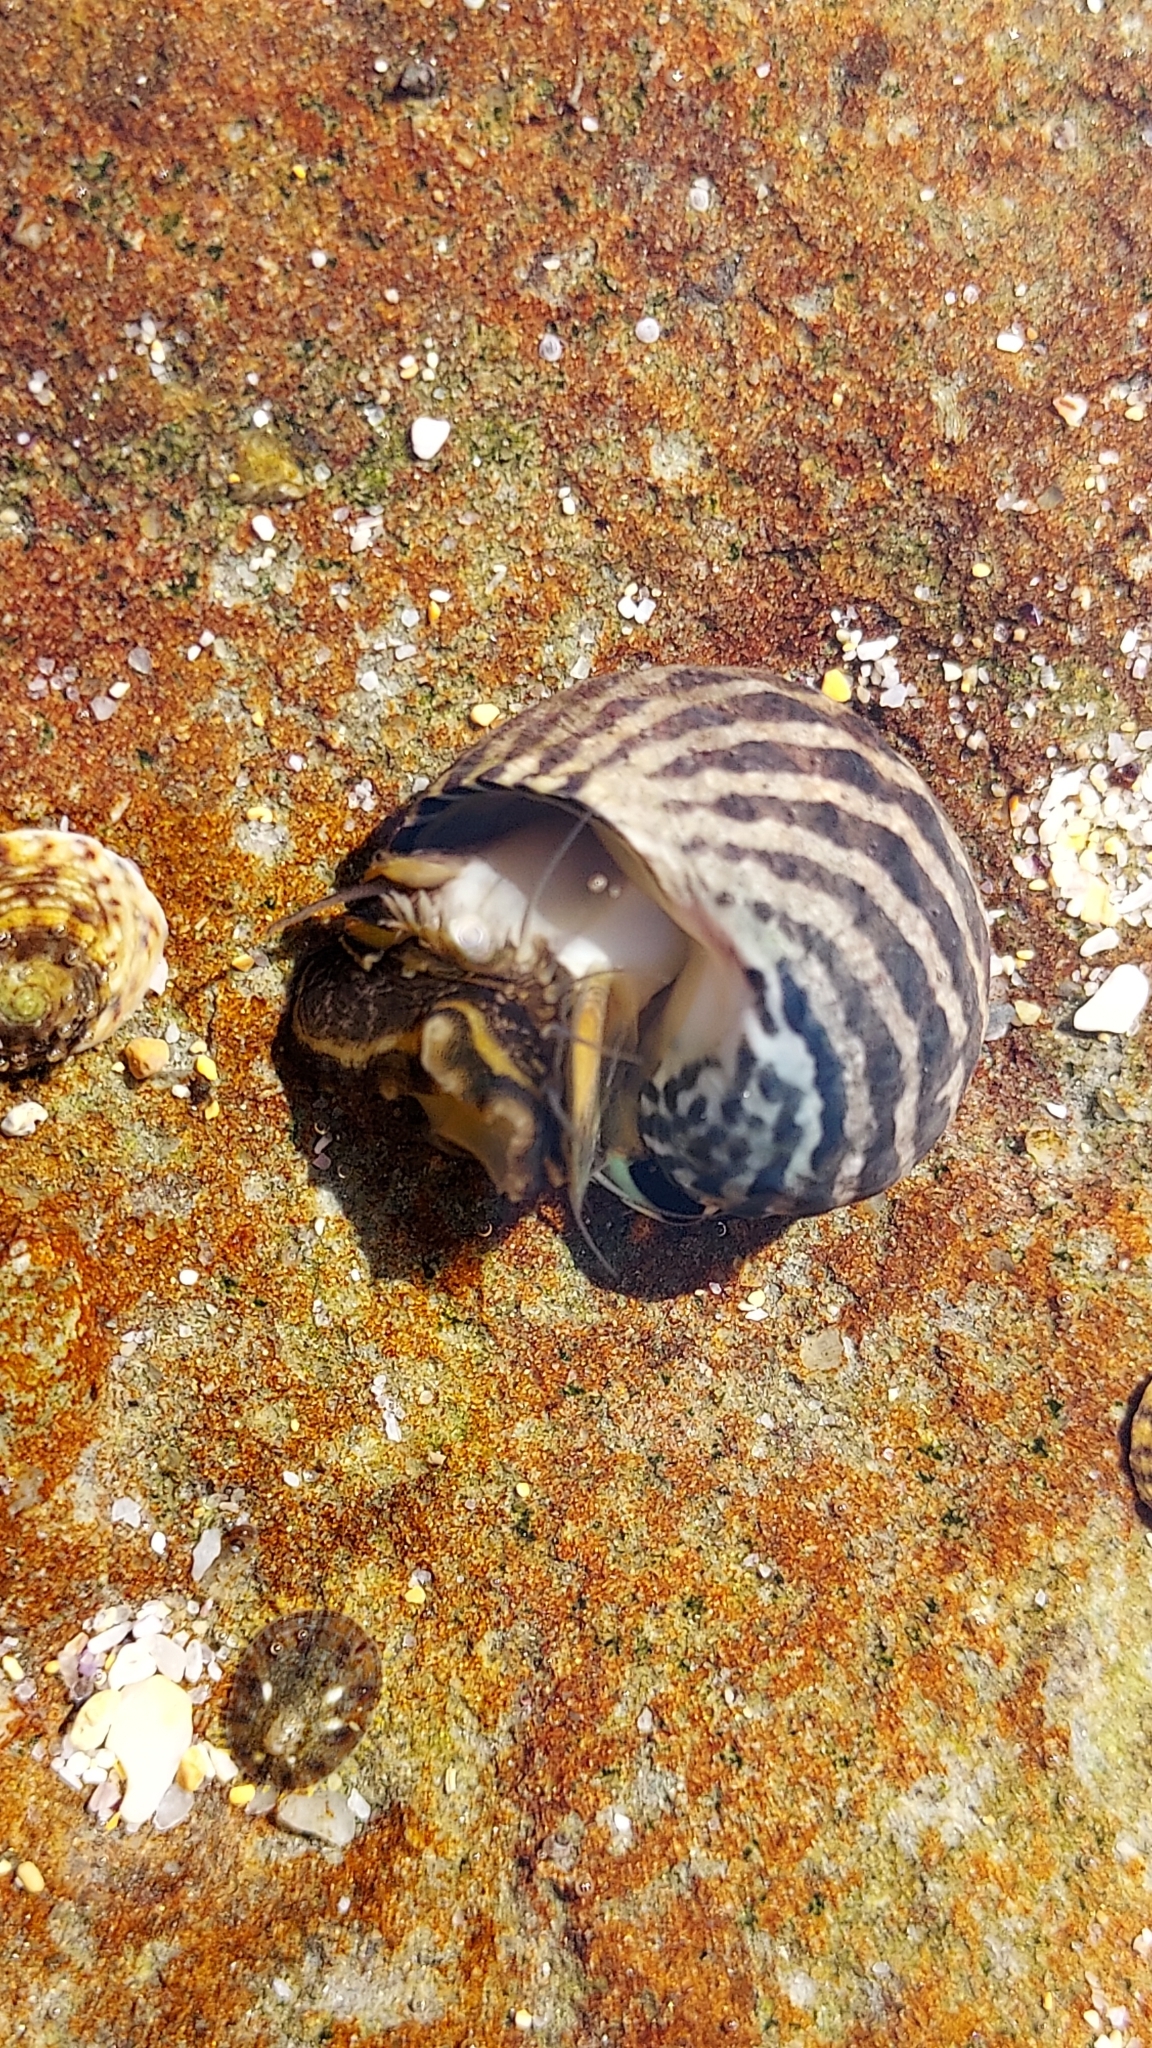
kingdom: Animalia
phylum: Mollusca
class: Gastropoda
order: Trochida
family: Trochidae
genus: Austrocochlea
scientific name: Austrocochlea porcata
